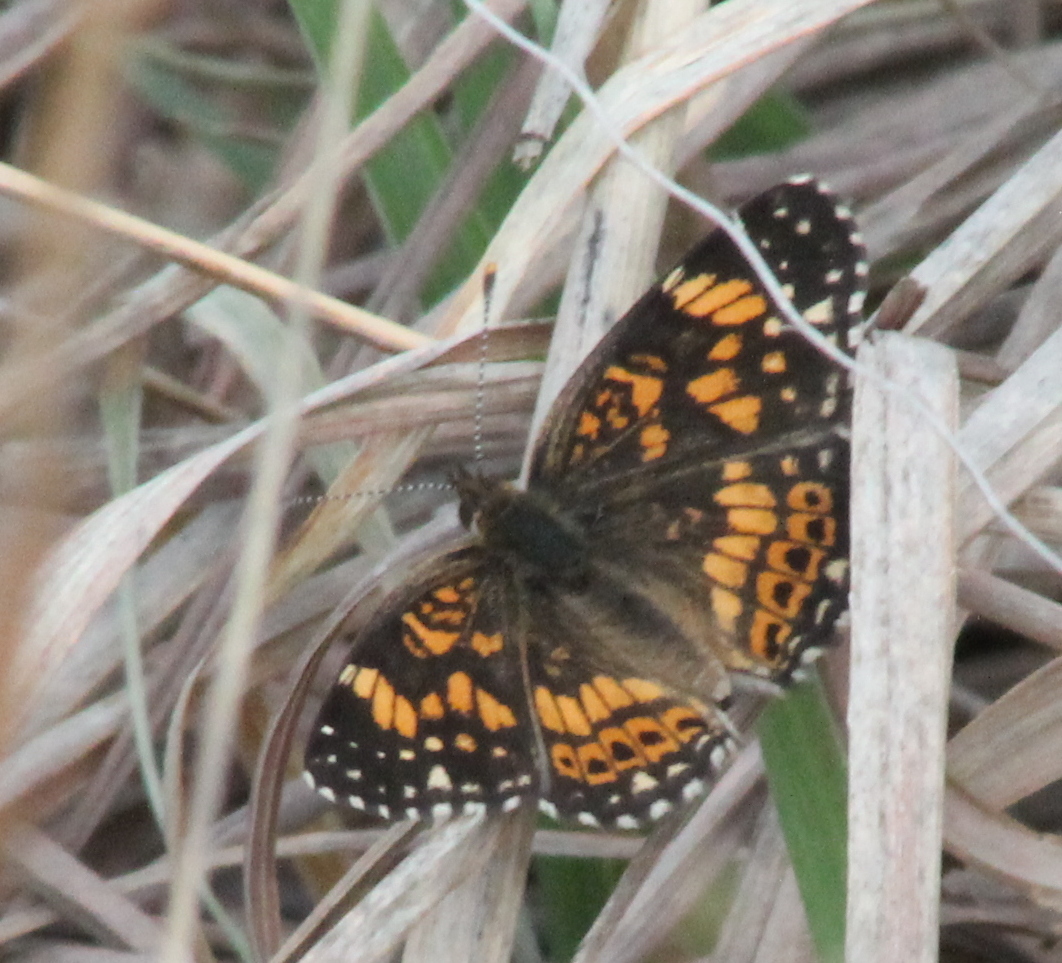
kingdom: Animalia
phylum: Arthropoda
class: Insecta
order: Lepidoptera
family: Nymphalidae
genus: Chlosyne
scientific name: Chlosyne gorgone
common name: Gorgone checkerspot
